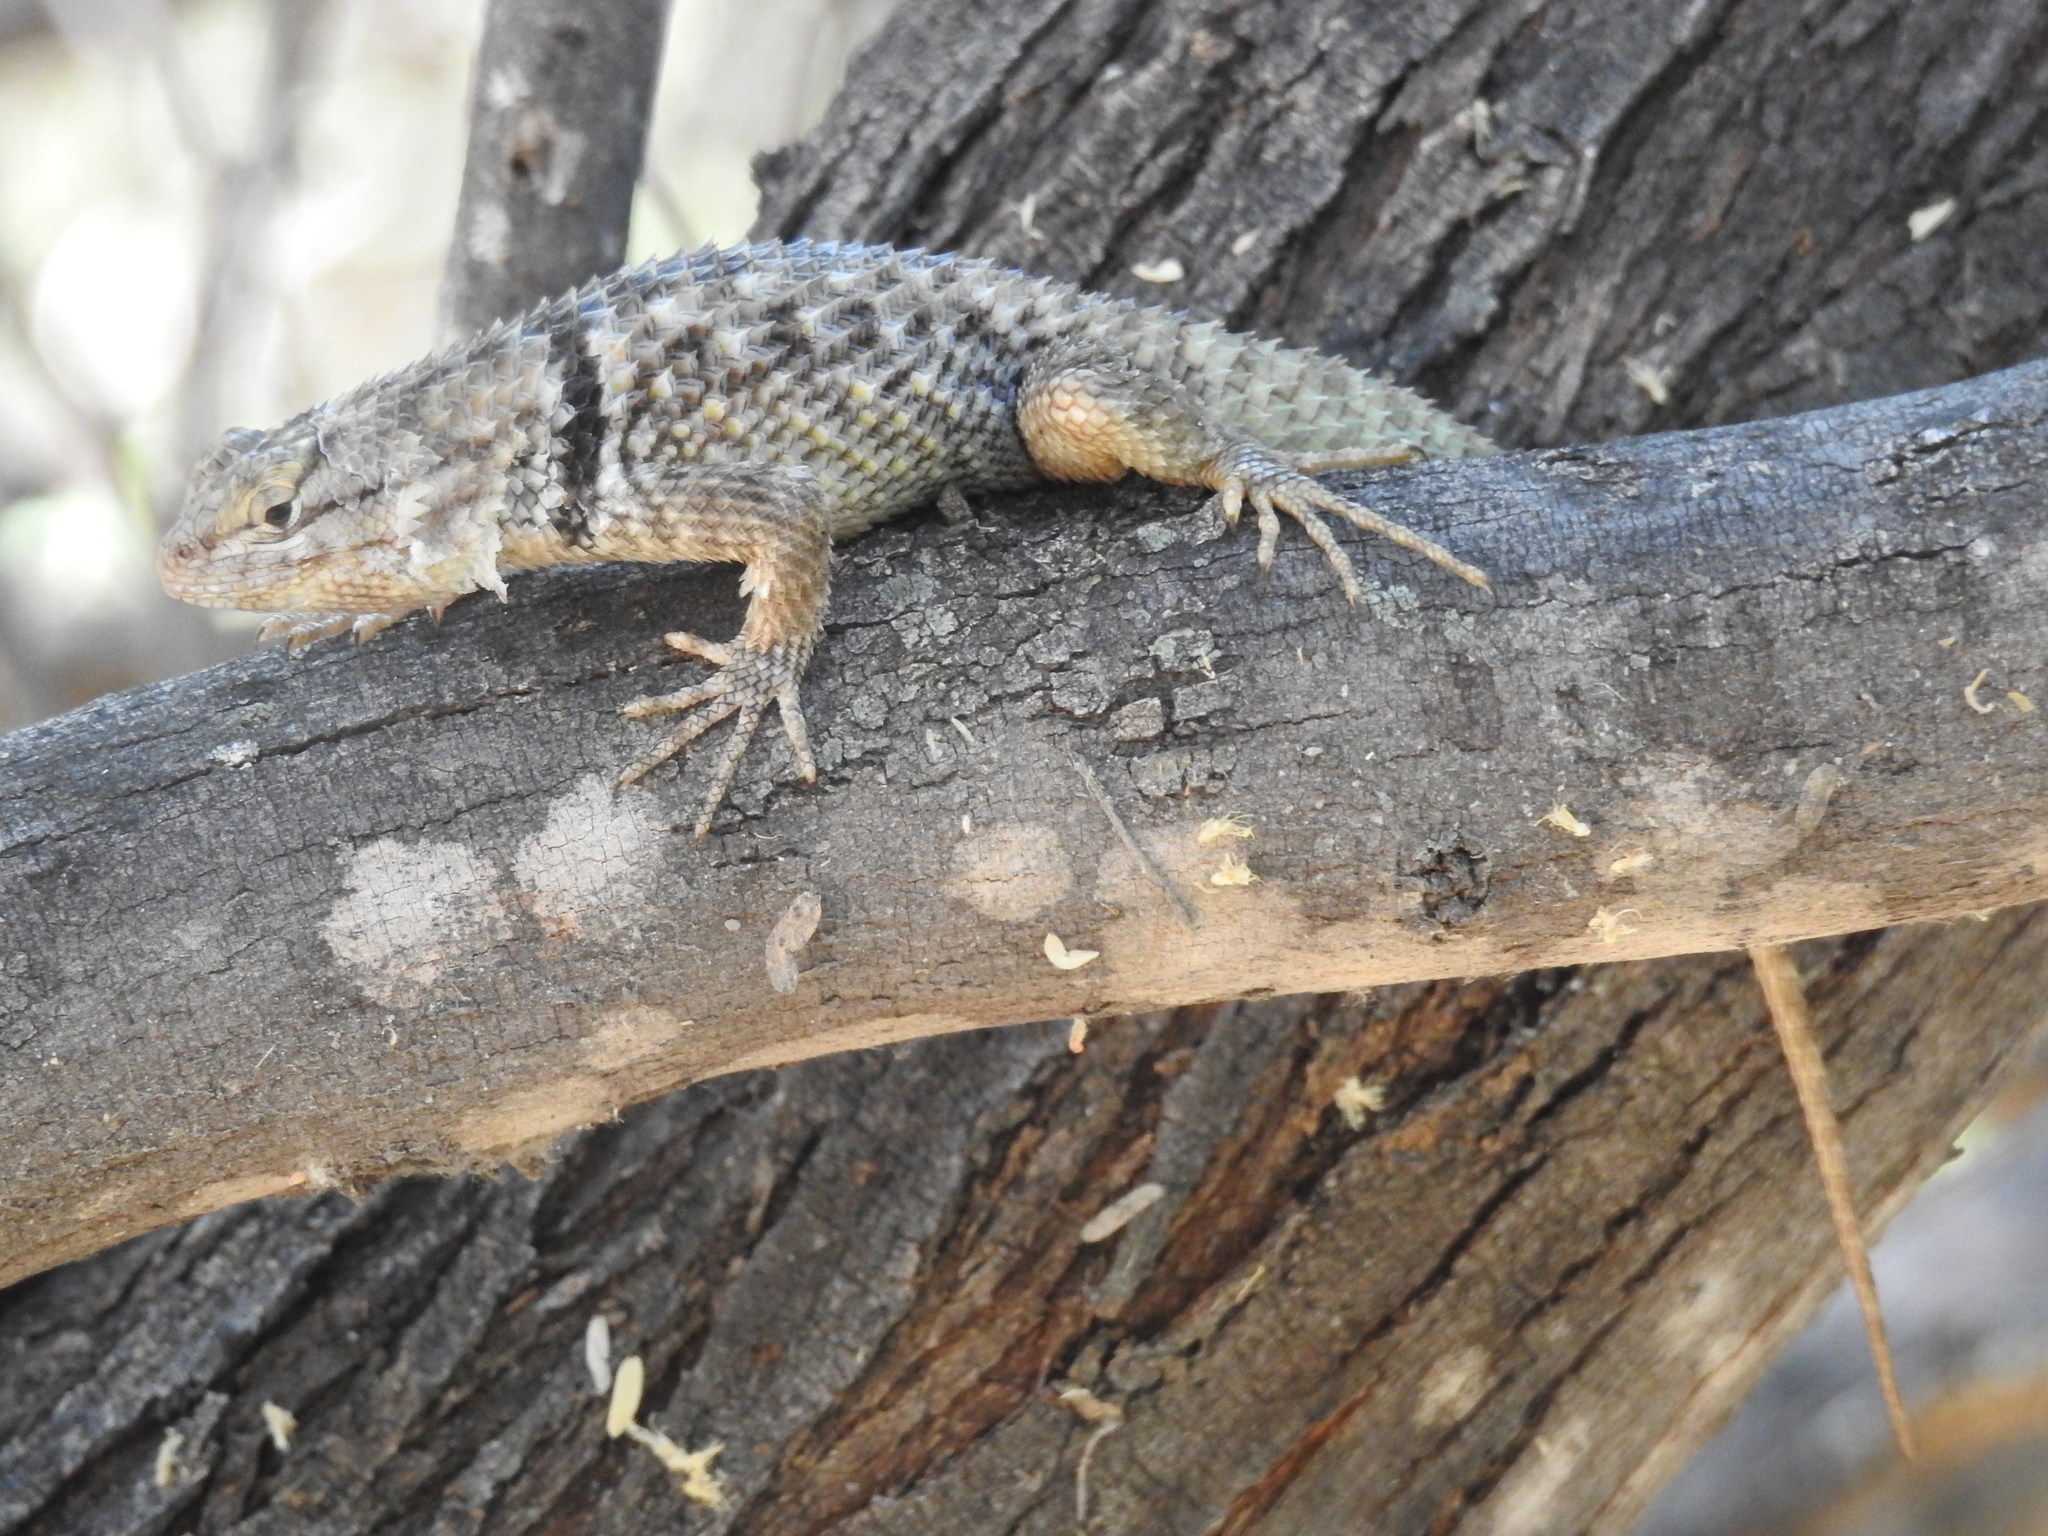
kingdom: Animalia
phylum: Chordata
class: Squamata
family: Phrynosomatidae
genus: Sceloporus
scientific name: Sceloporus magister
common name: Desert spiny lizard
